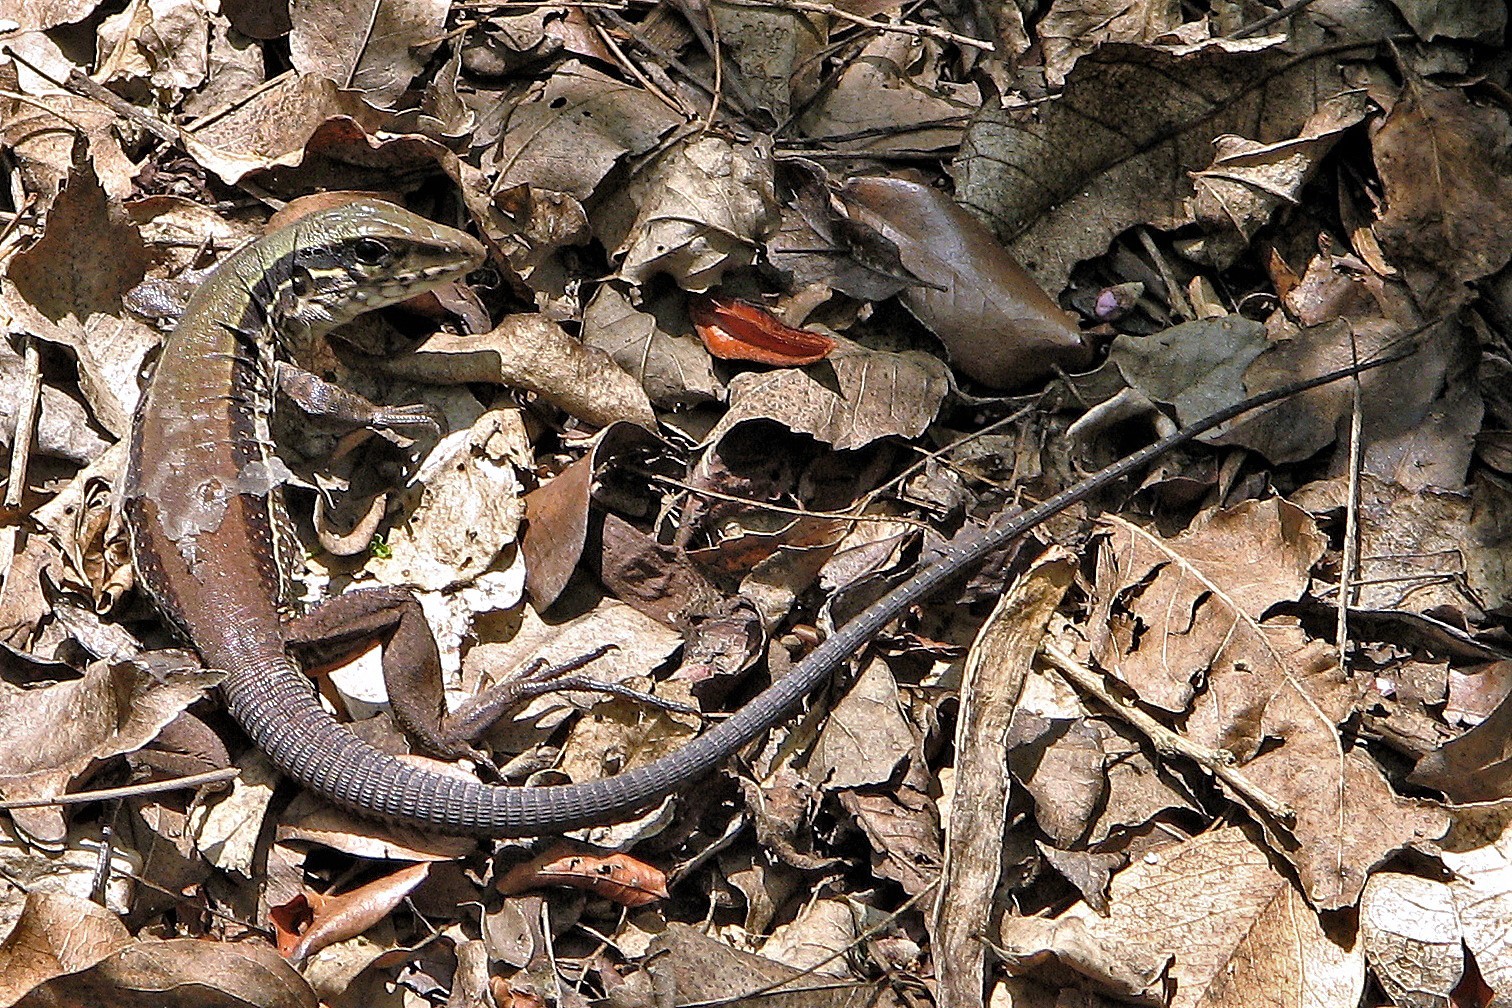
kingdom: Animalia
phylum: Chordata
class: Squamata
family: Teiidae
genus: Ameiva
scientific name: Ameiva ameiva
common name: Giant ameiva
